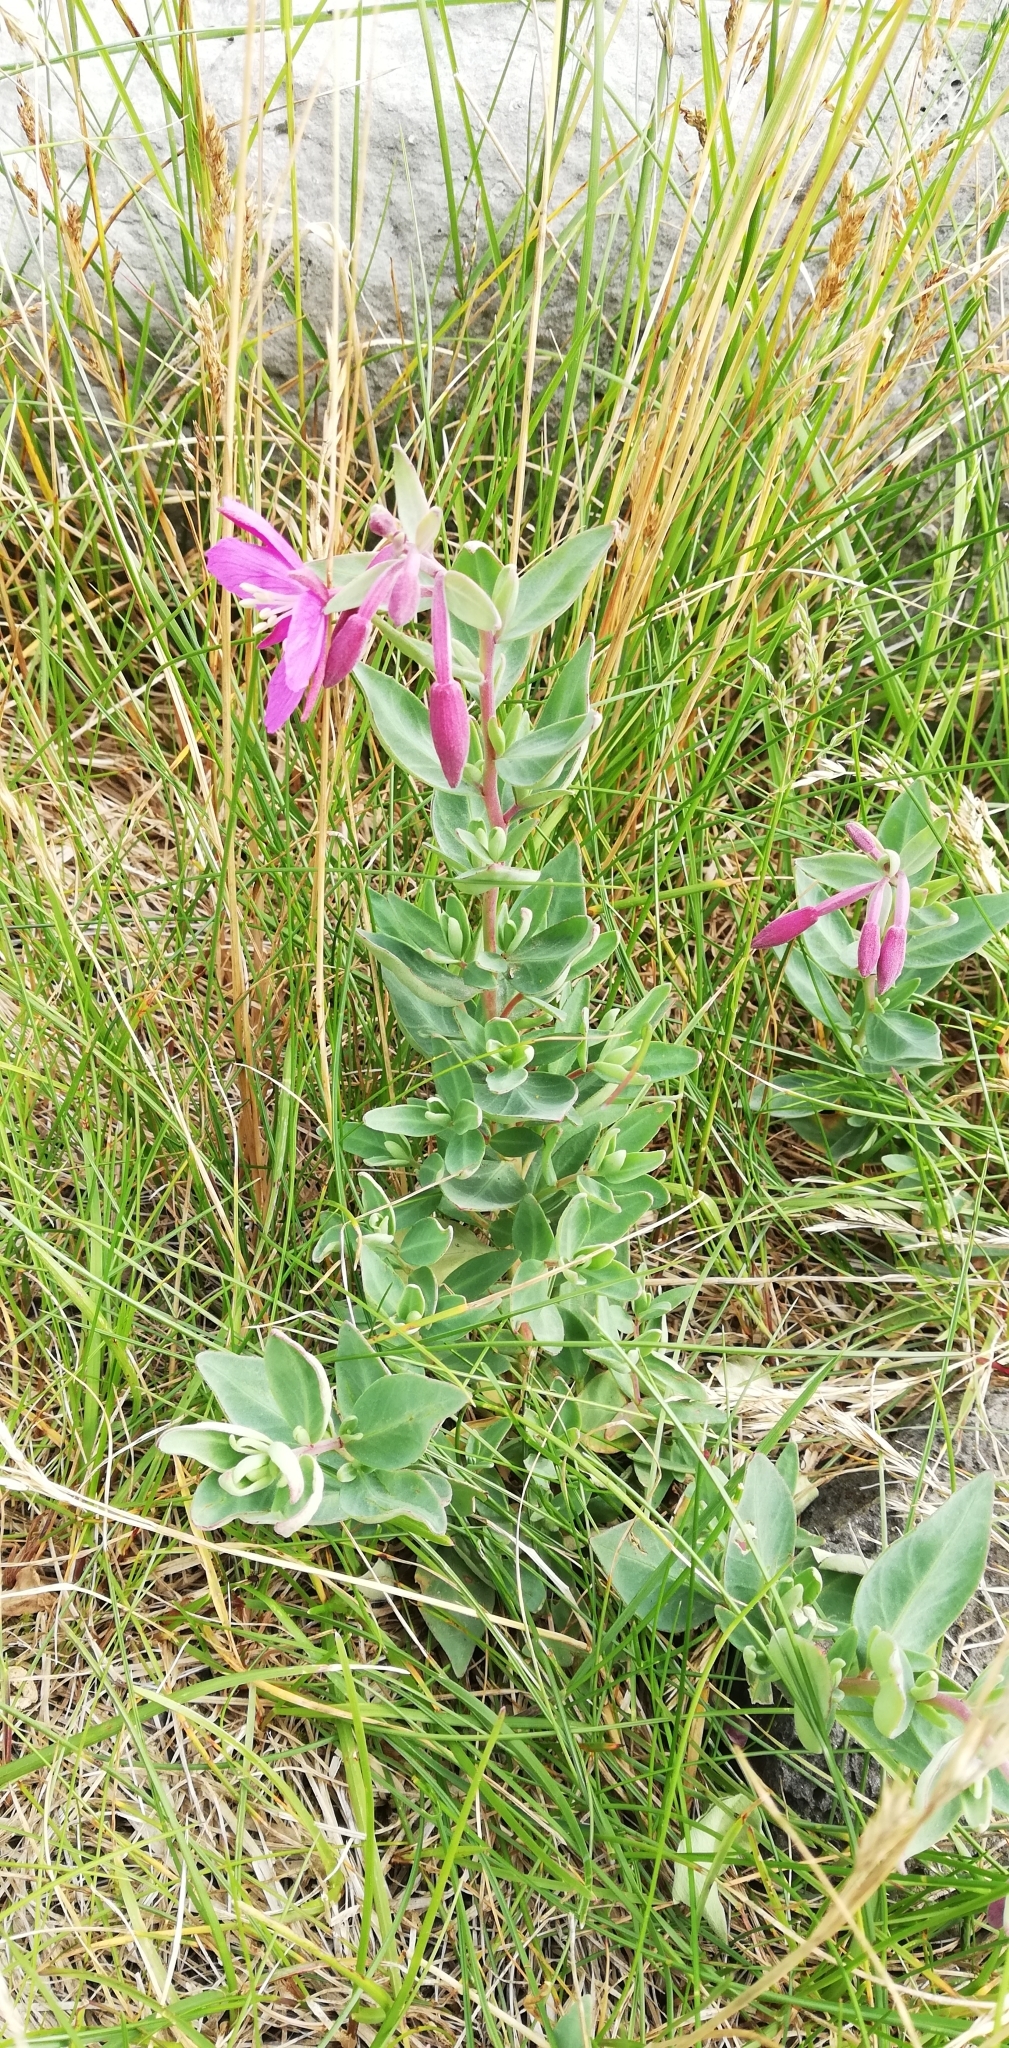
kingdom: Plantae
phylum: Tracheophyta
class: Magnoliopsida
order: Myrtales
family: Onagraceae
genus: Chamaenerion
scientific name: Chamaenerion latifolium
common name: Dwarf fireweed
